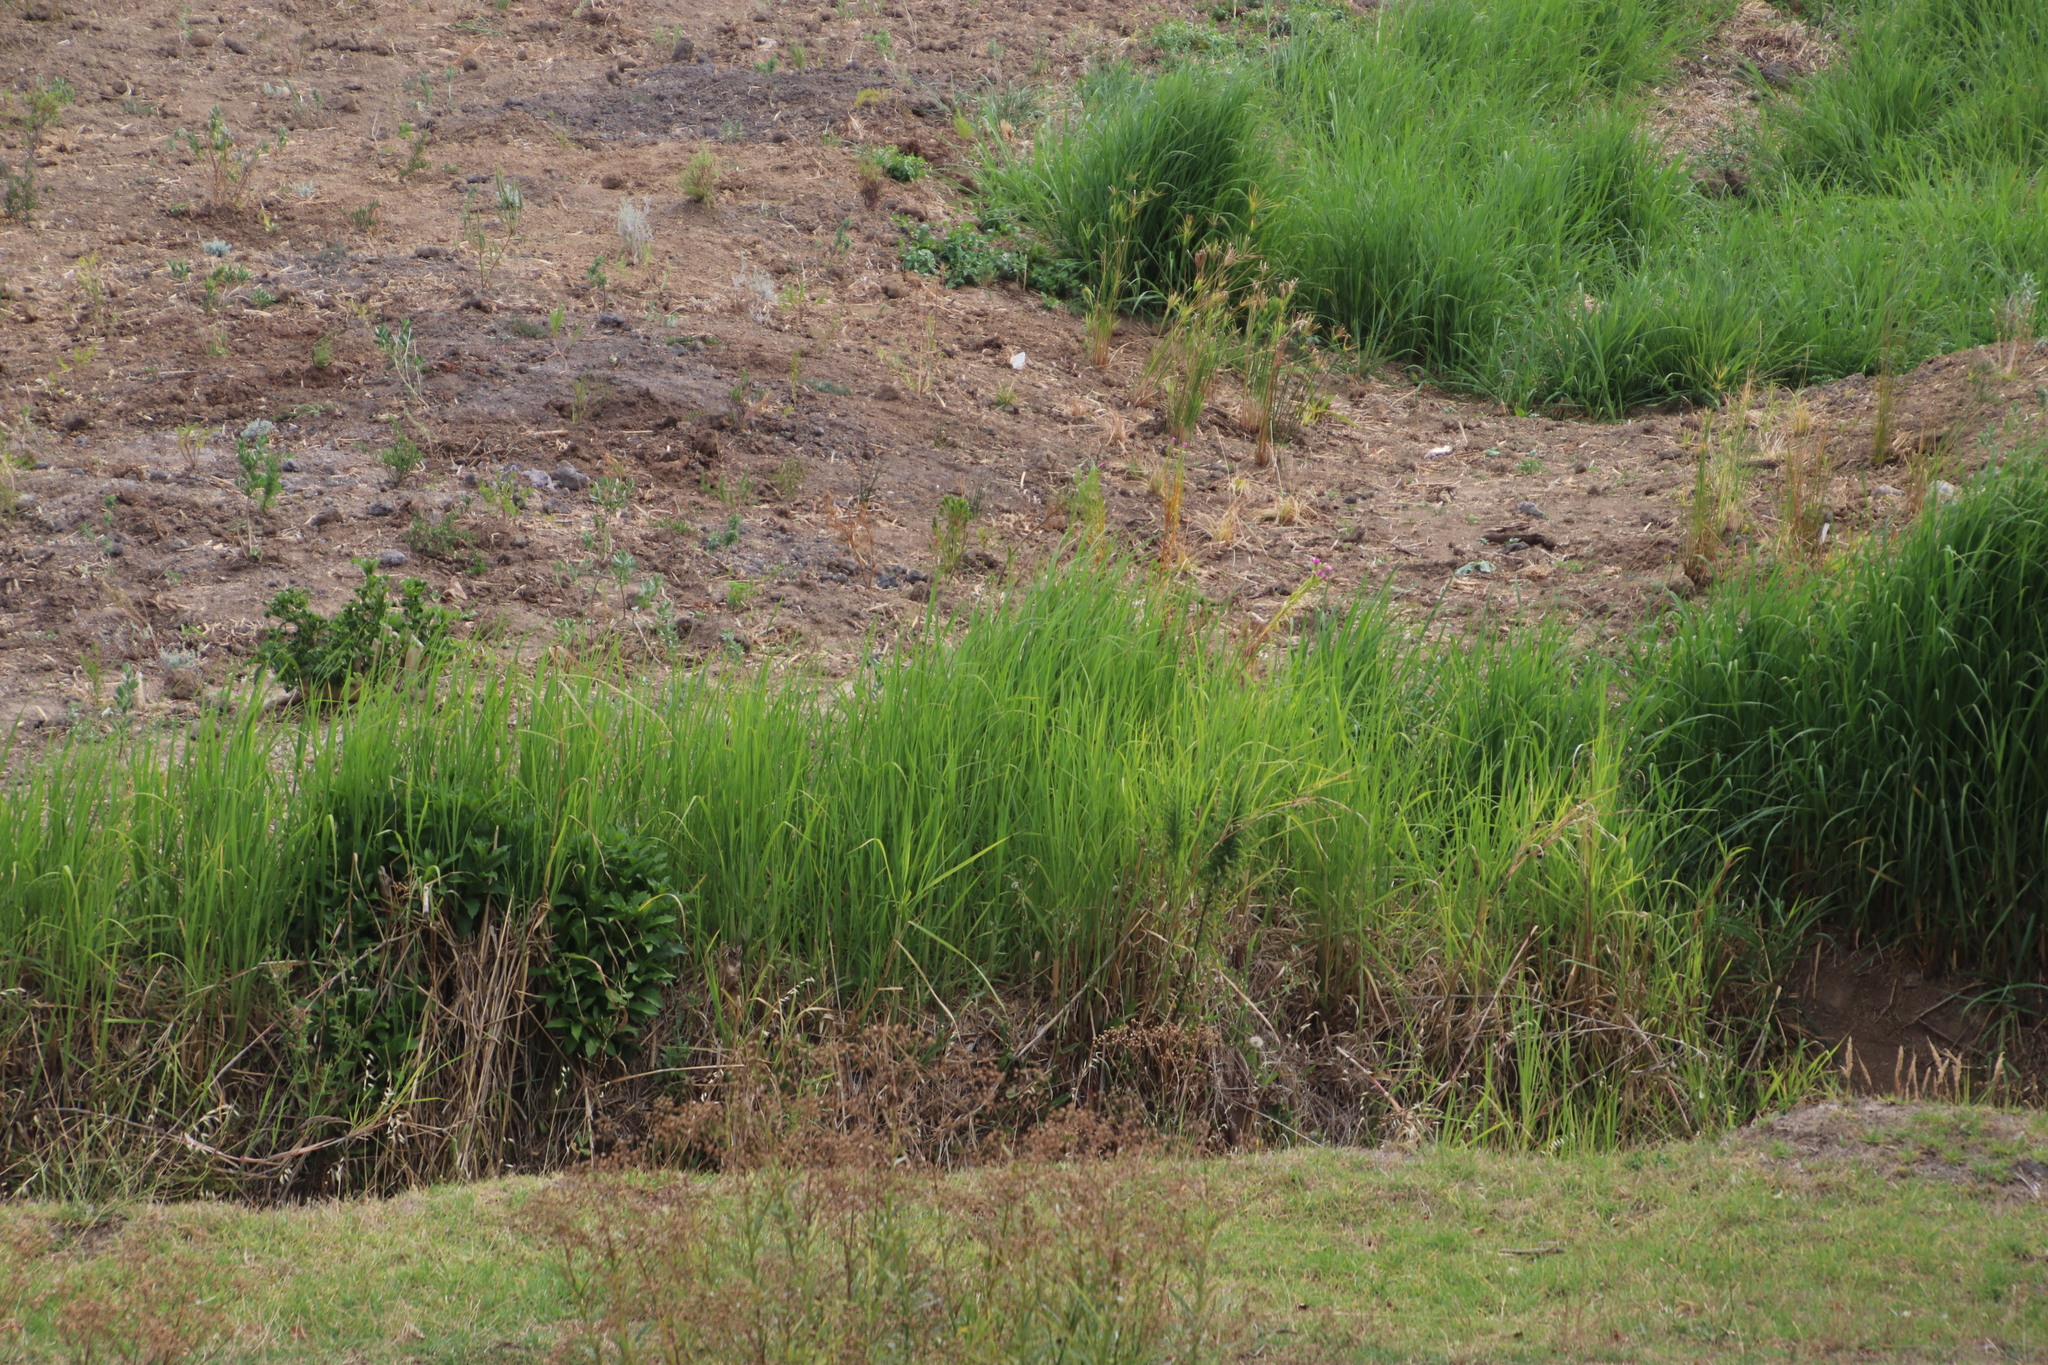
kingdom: Plantae
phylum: Tracheophyta
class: Liliopsida
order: Poales
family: Poaceae
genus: Echinochloa
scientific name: Echinochloa pyramidalis
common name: Antelope grass
